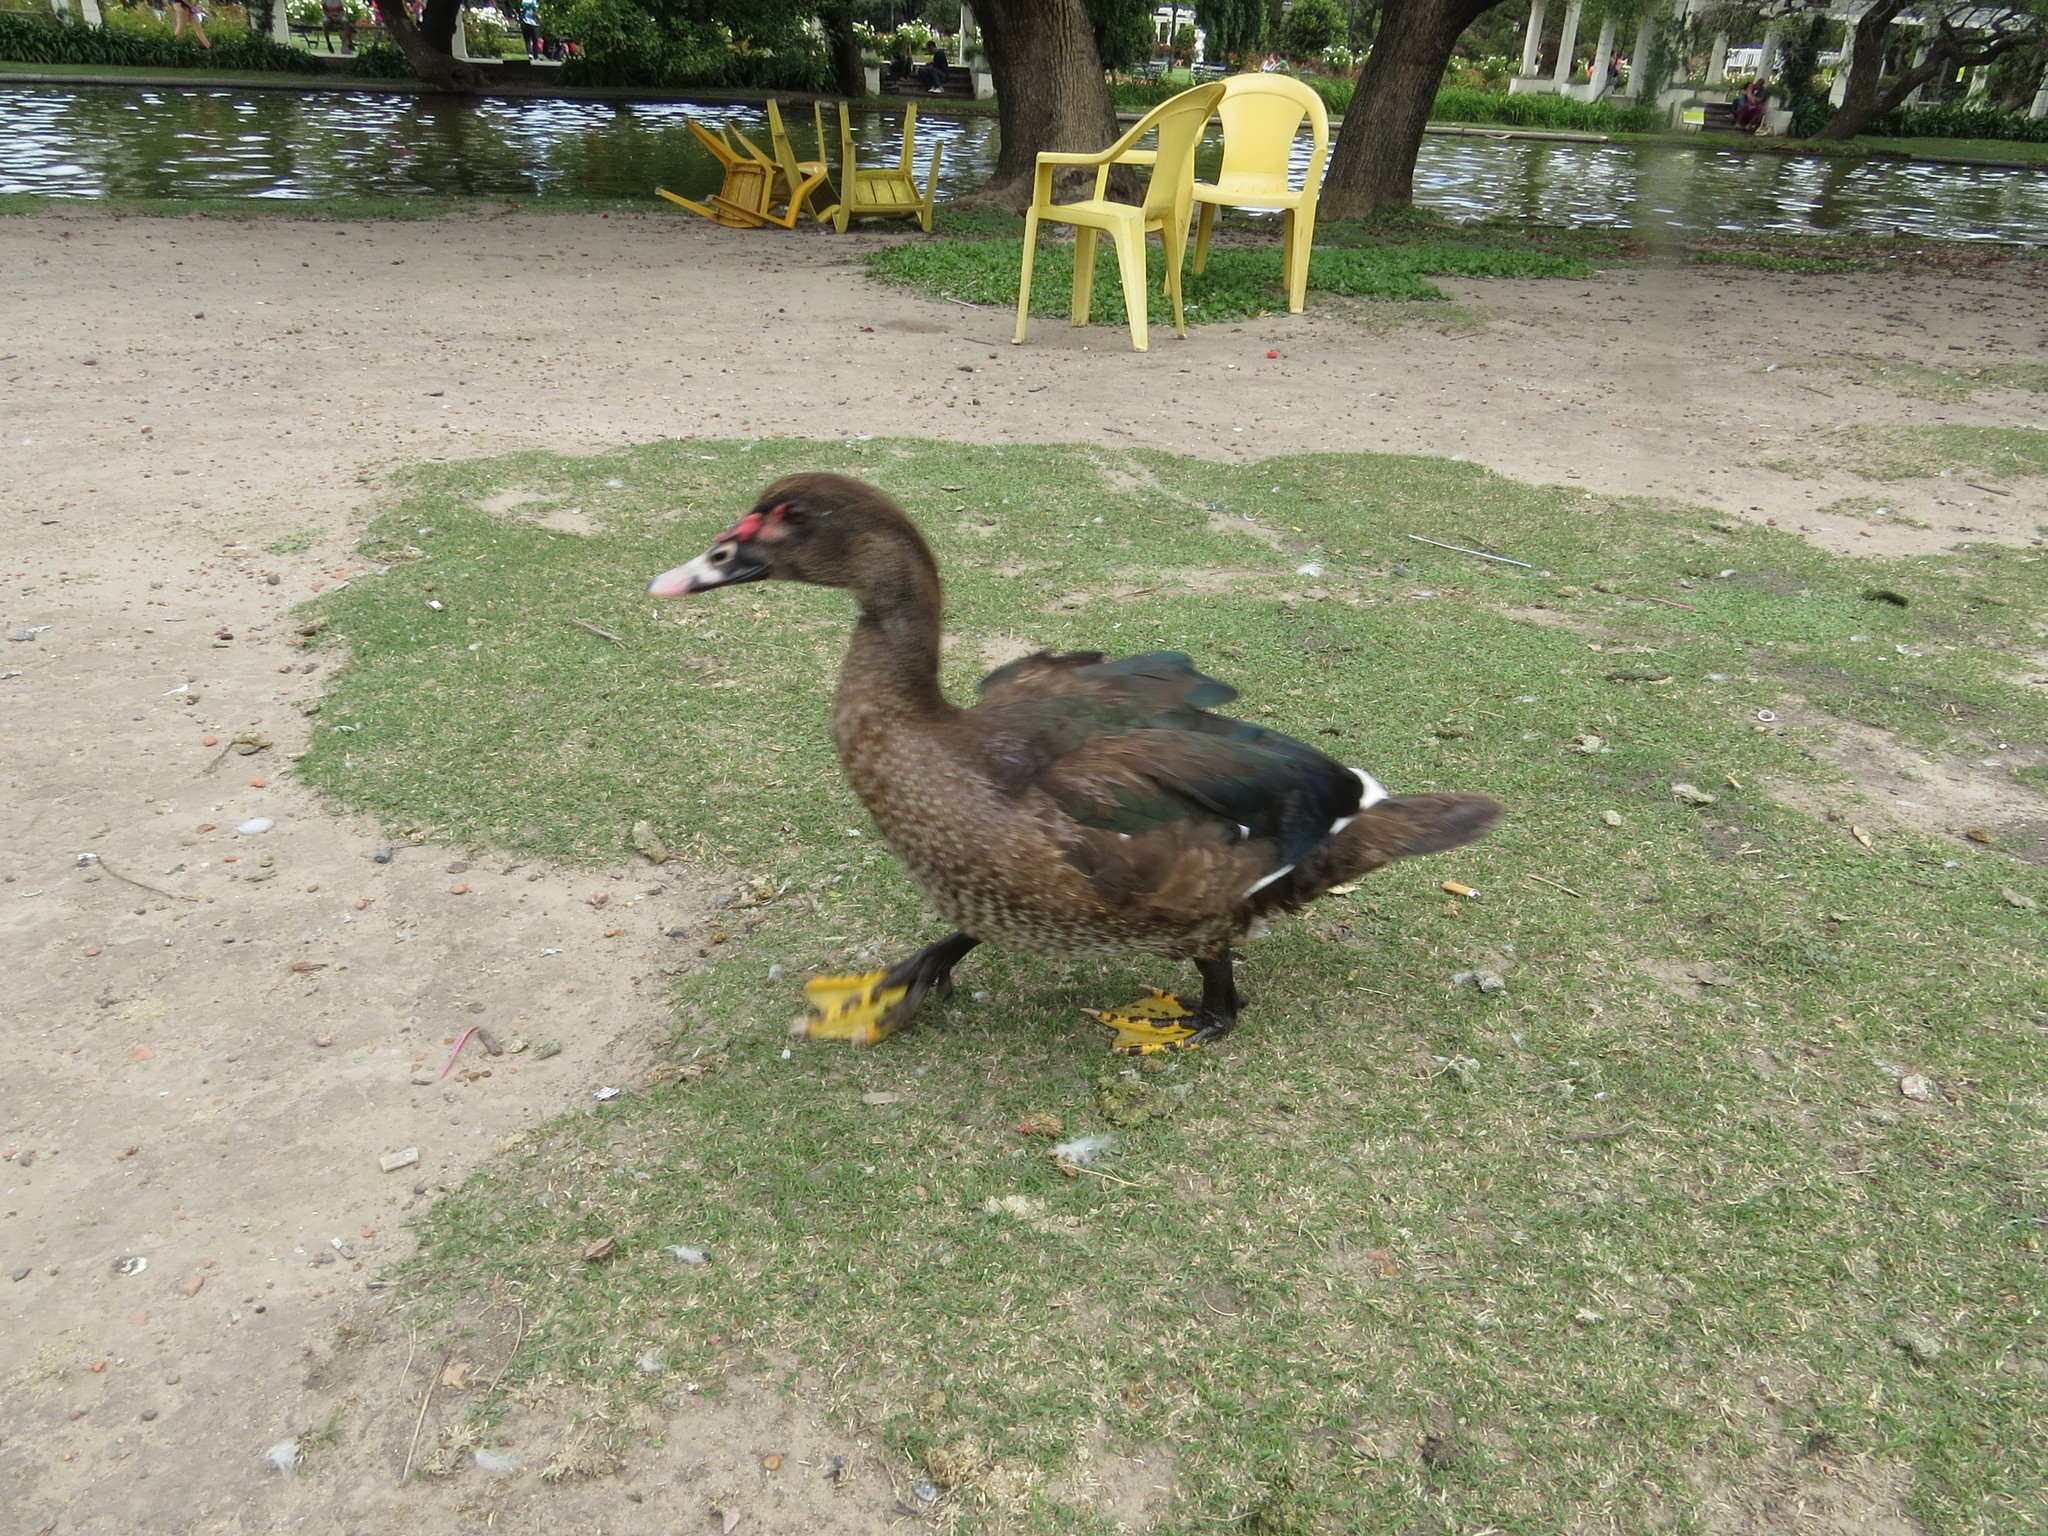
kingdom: Animalia
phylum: Chordata
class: Aves
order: Anseriformes
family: Anatidae
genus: Cairina
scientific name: Cairina moschata
